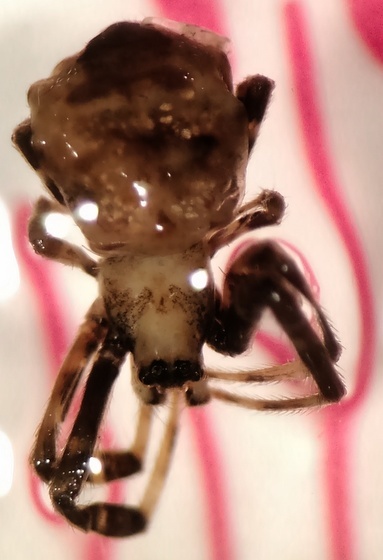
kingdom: Animalia
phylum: Arthropoda
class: Arachnida
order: Araneae
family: Araneidae
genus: Gea
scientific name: Gea heptagon
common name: Orb weavers
